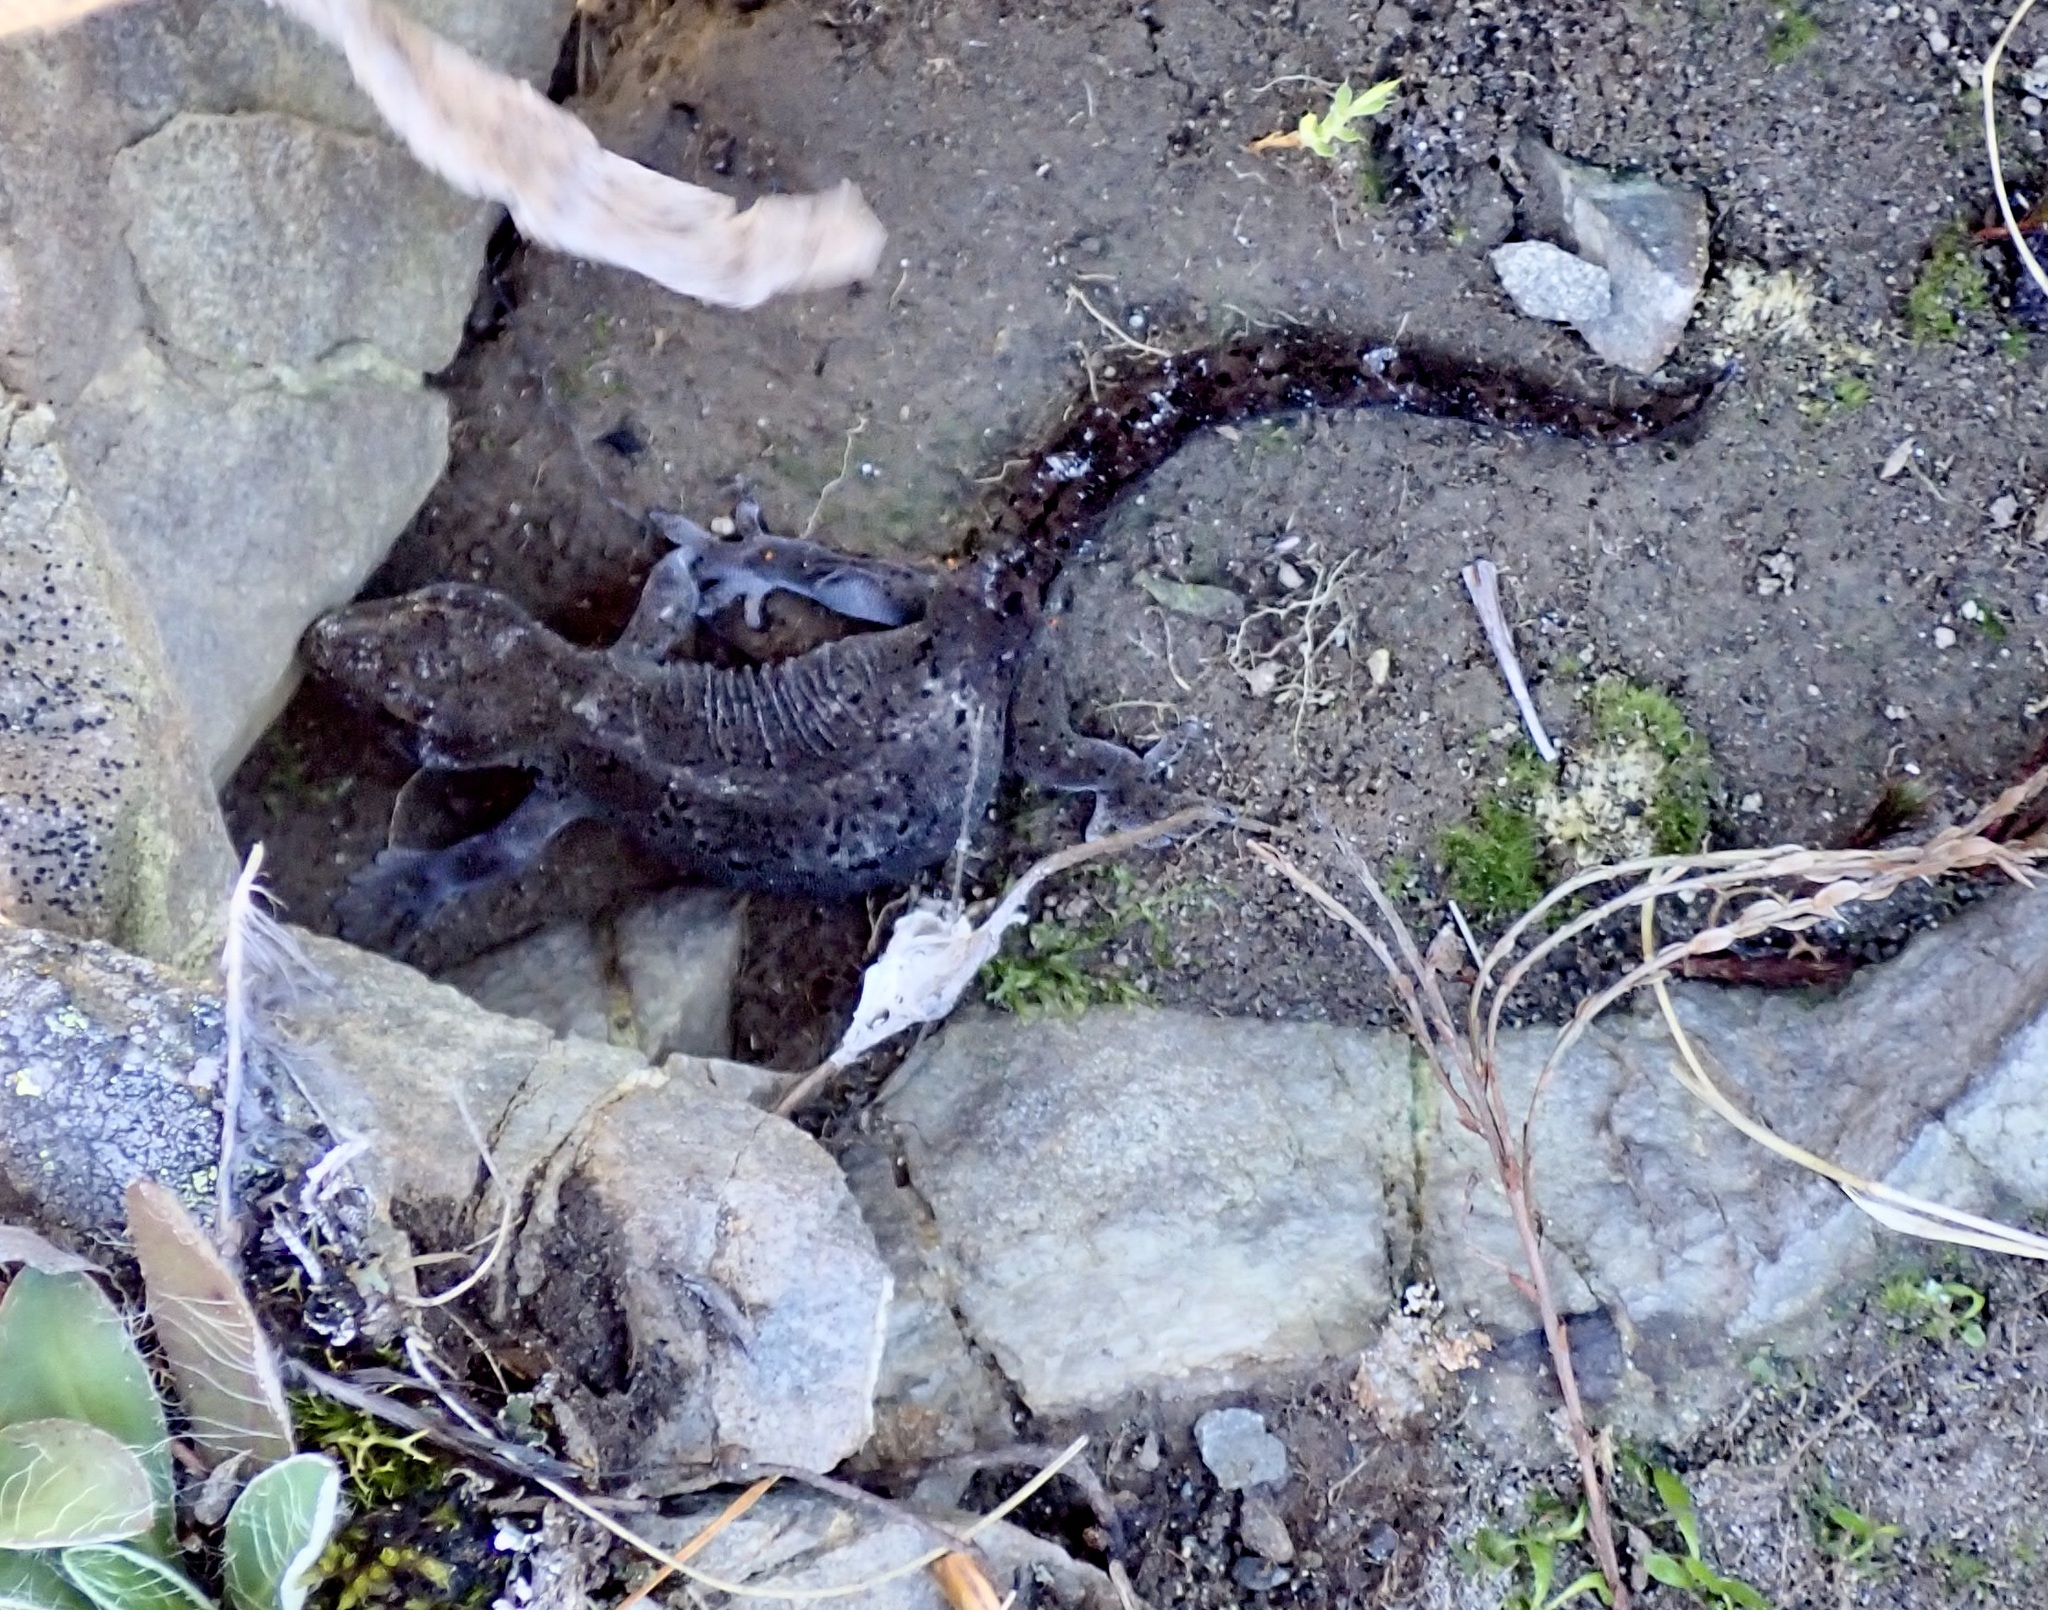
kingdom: Animalia
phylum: Chordata
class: Squamata
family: Diplodactylidae
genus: Woodworthia
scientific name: Woodworthia
